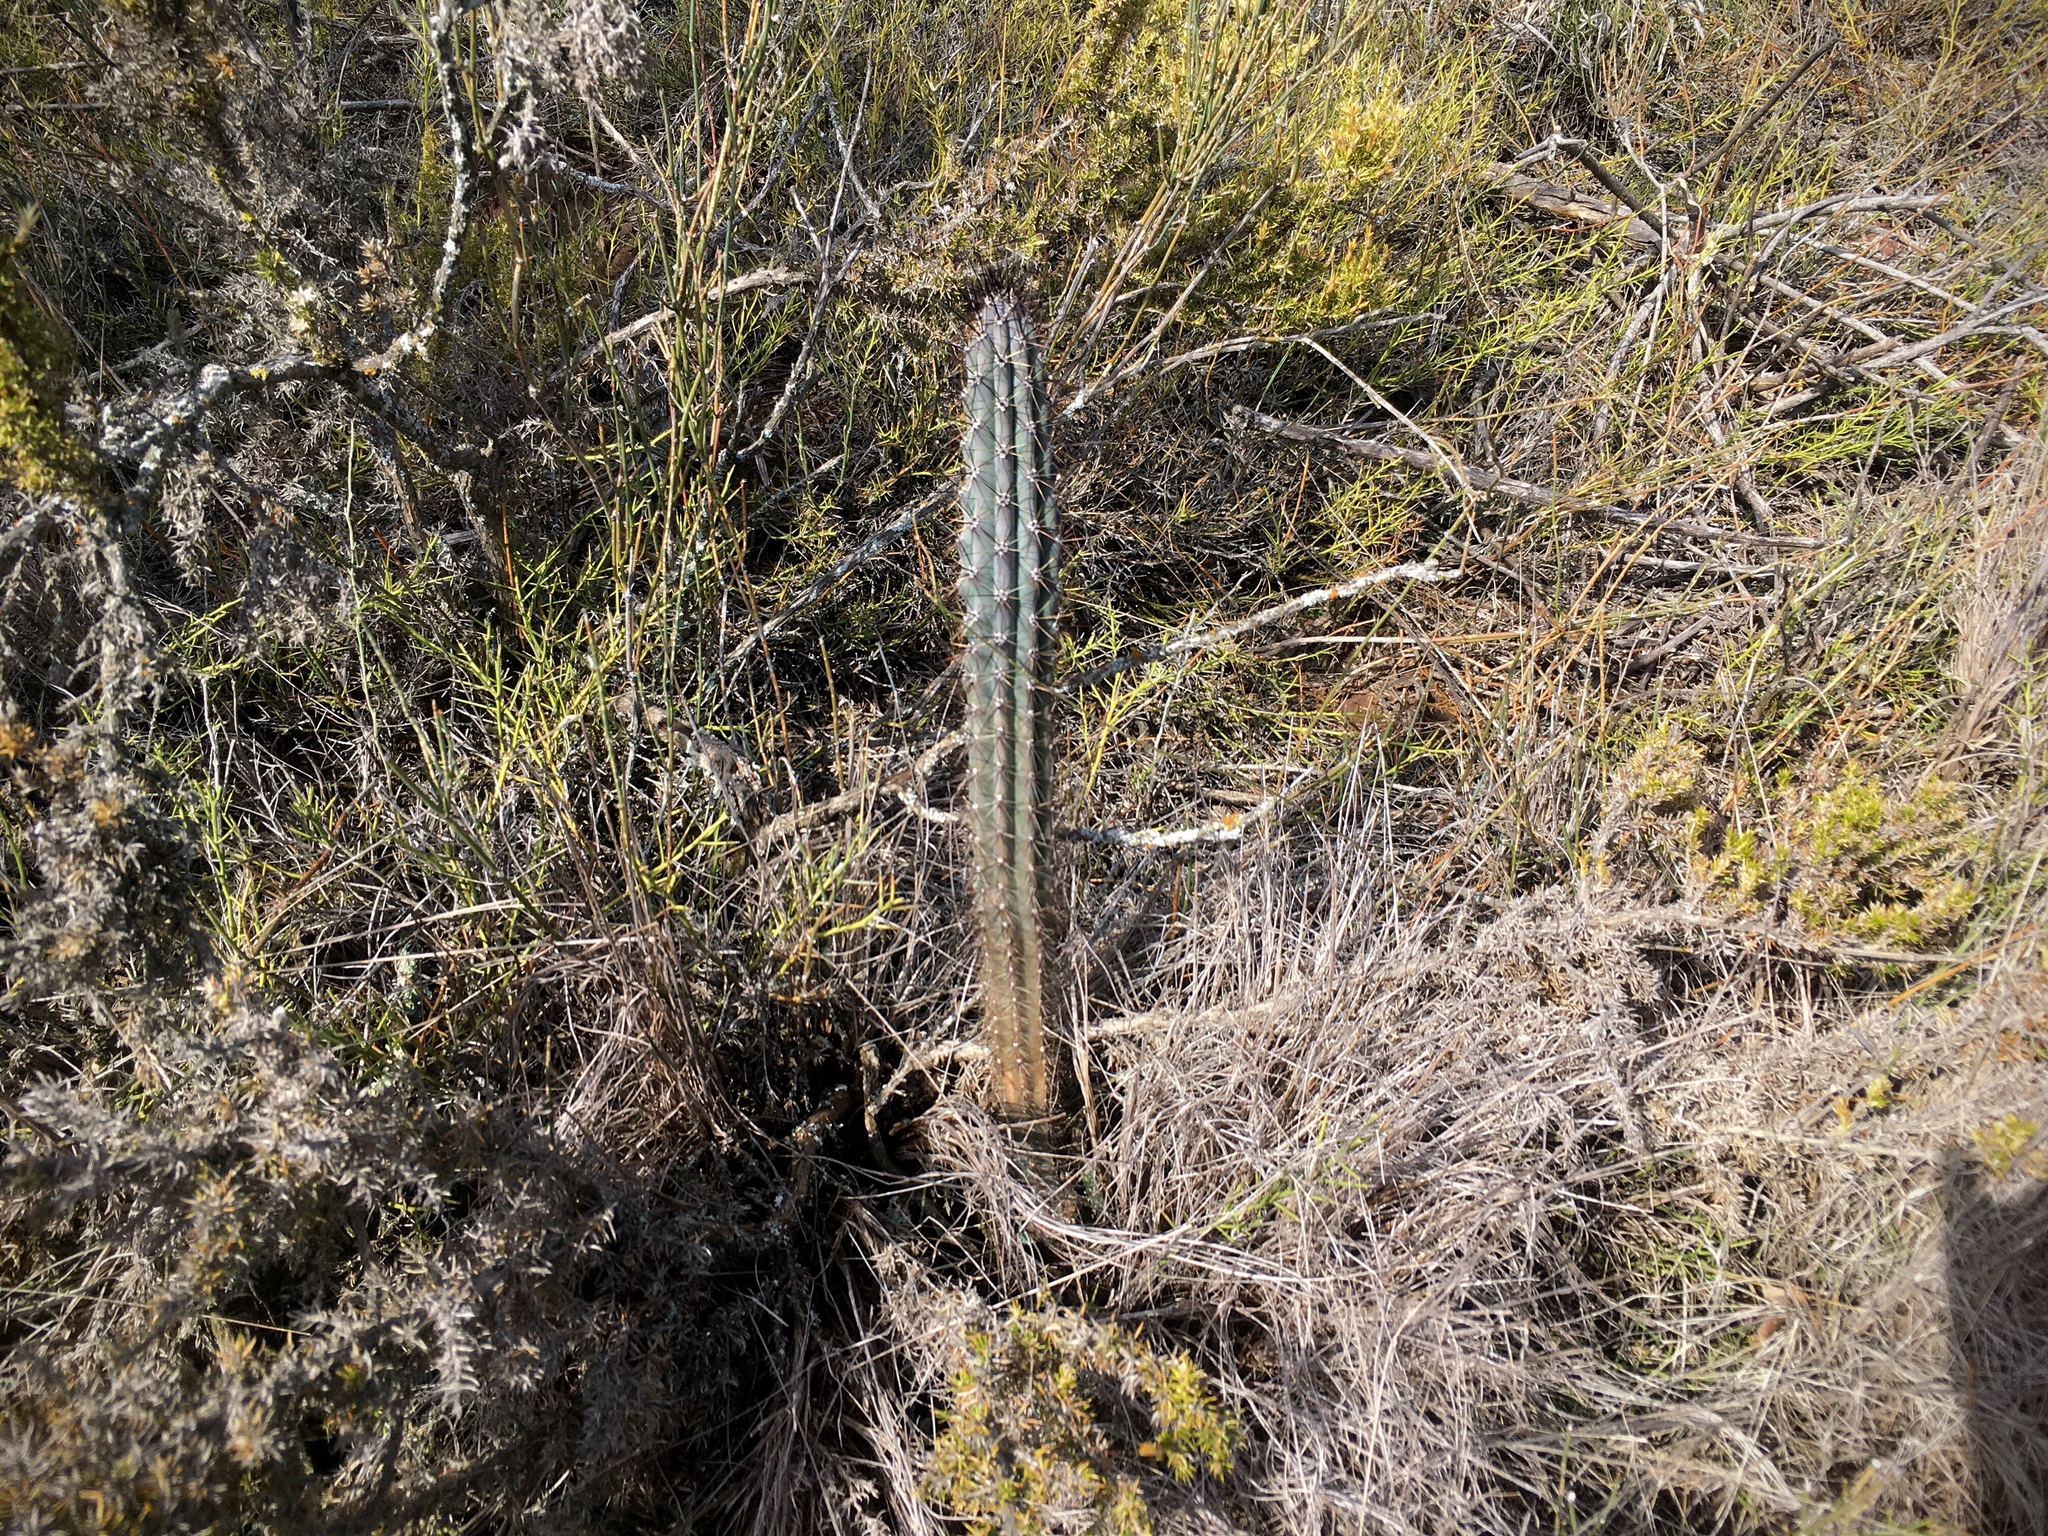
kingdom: Plantae
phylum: Tracheophyta
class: Magnoliopsida
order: Caryophyllales
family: Cactaceae
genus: Cereus
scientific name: Cereus aethiops
